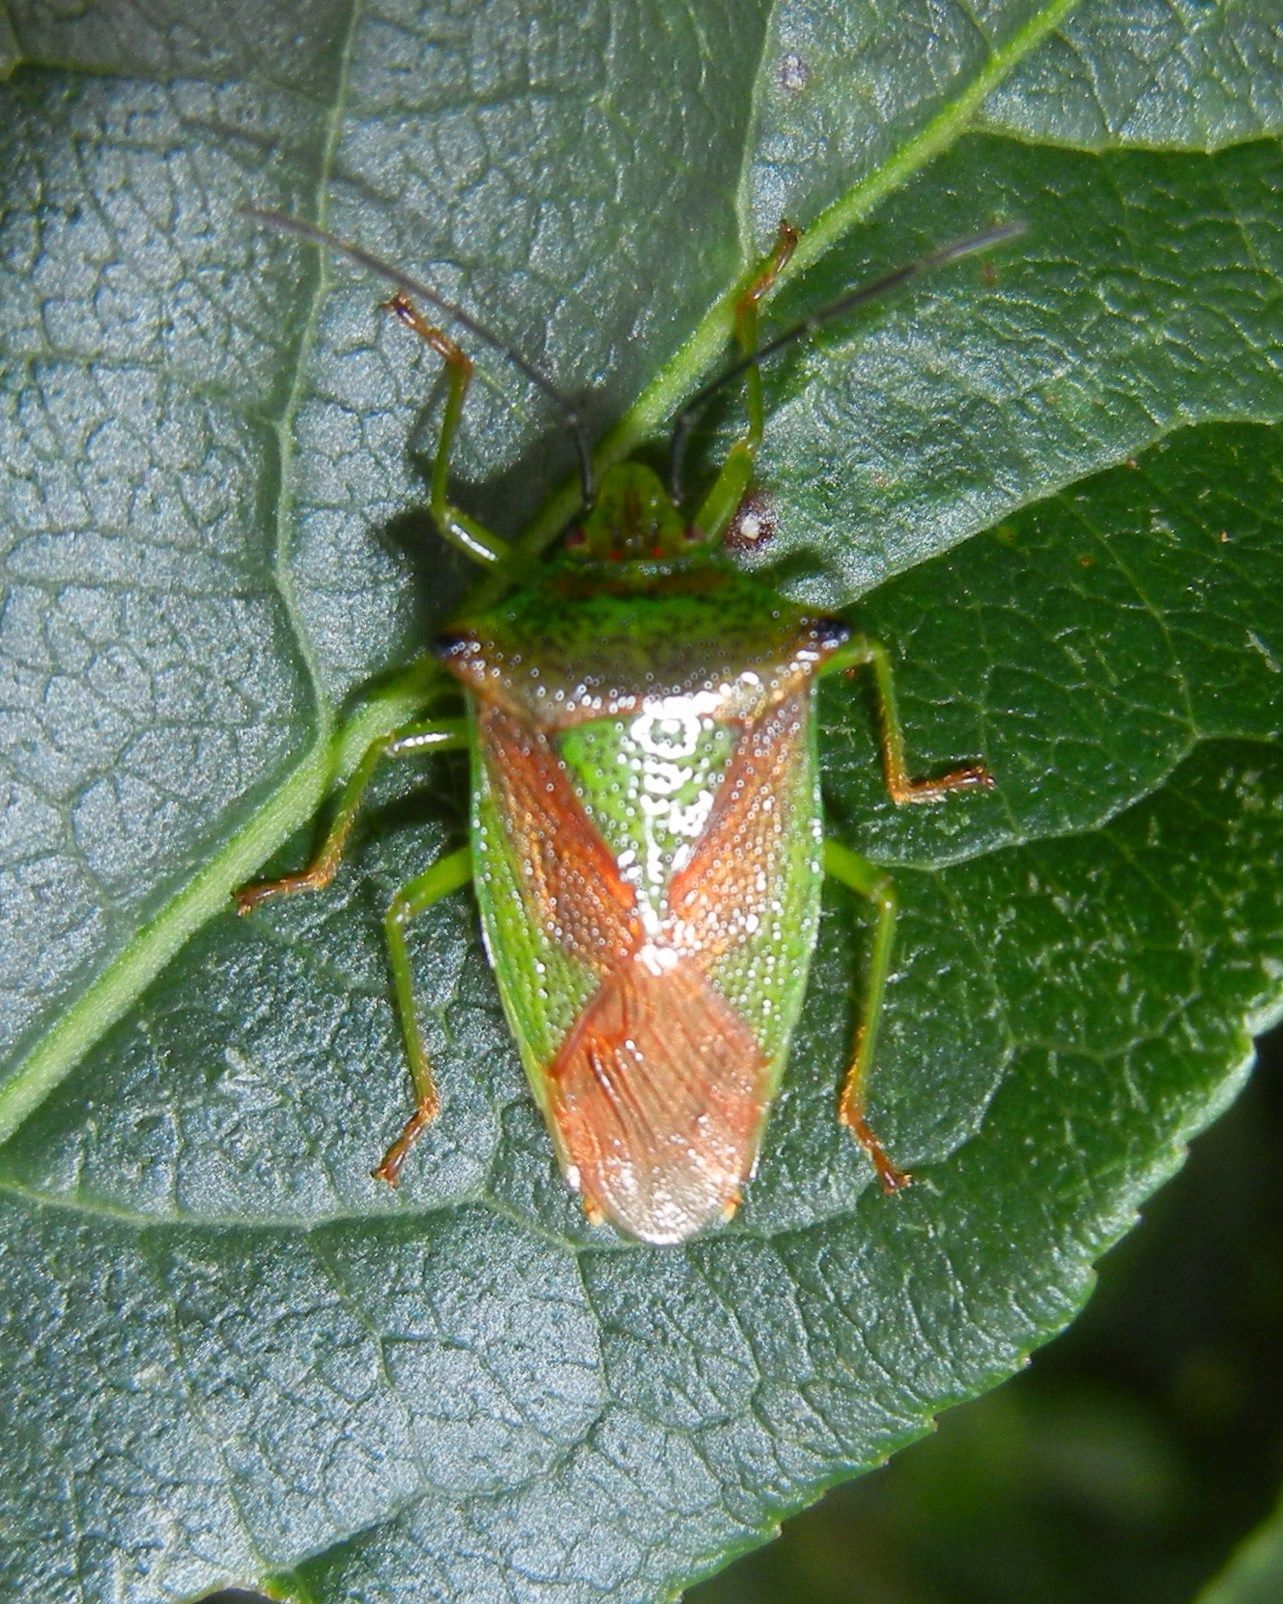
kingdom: Animalia
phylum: Arthropoda
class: Insecta
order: Hemiptera
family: Acanthosomatidae
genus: Acanthosoma
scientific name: Acanthosoma haemorrhoidale
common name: Hawthorn shieldbug
